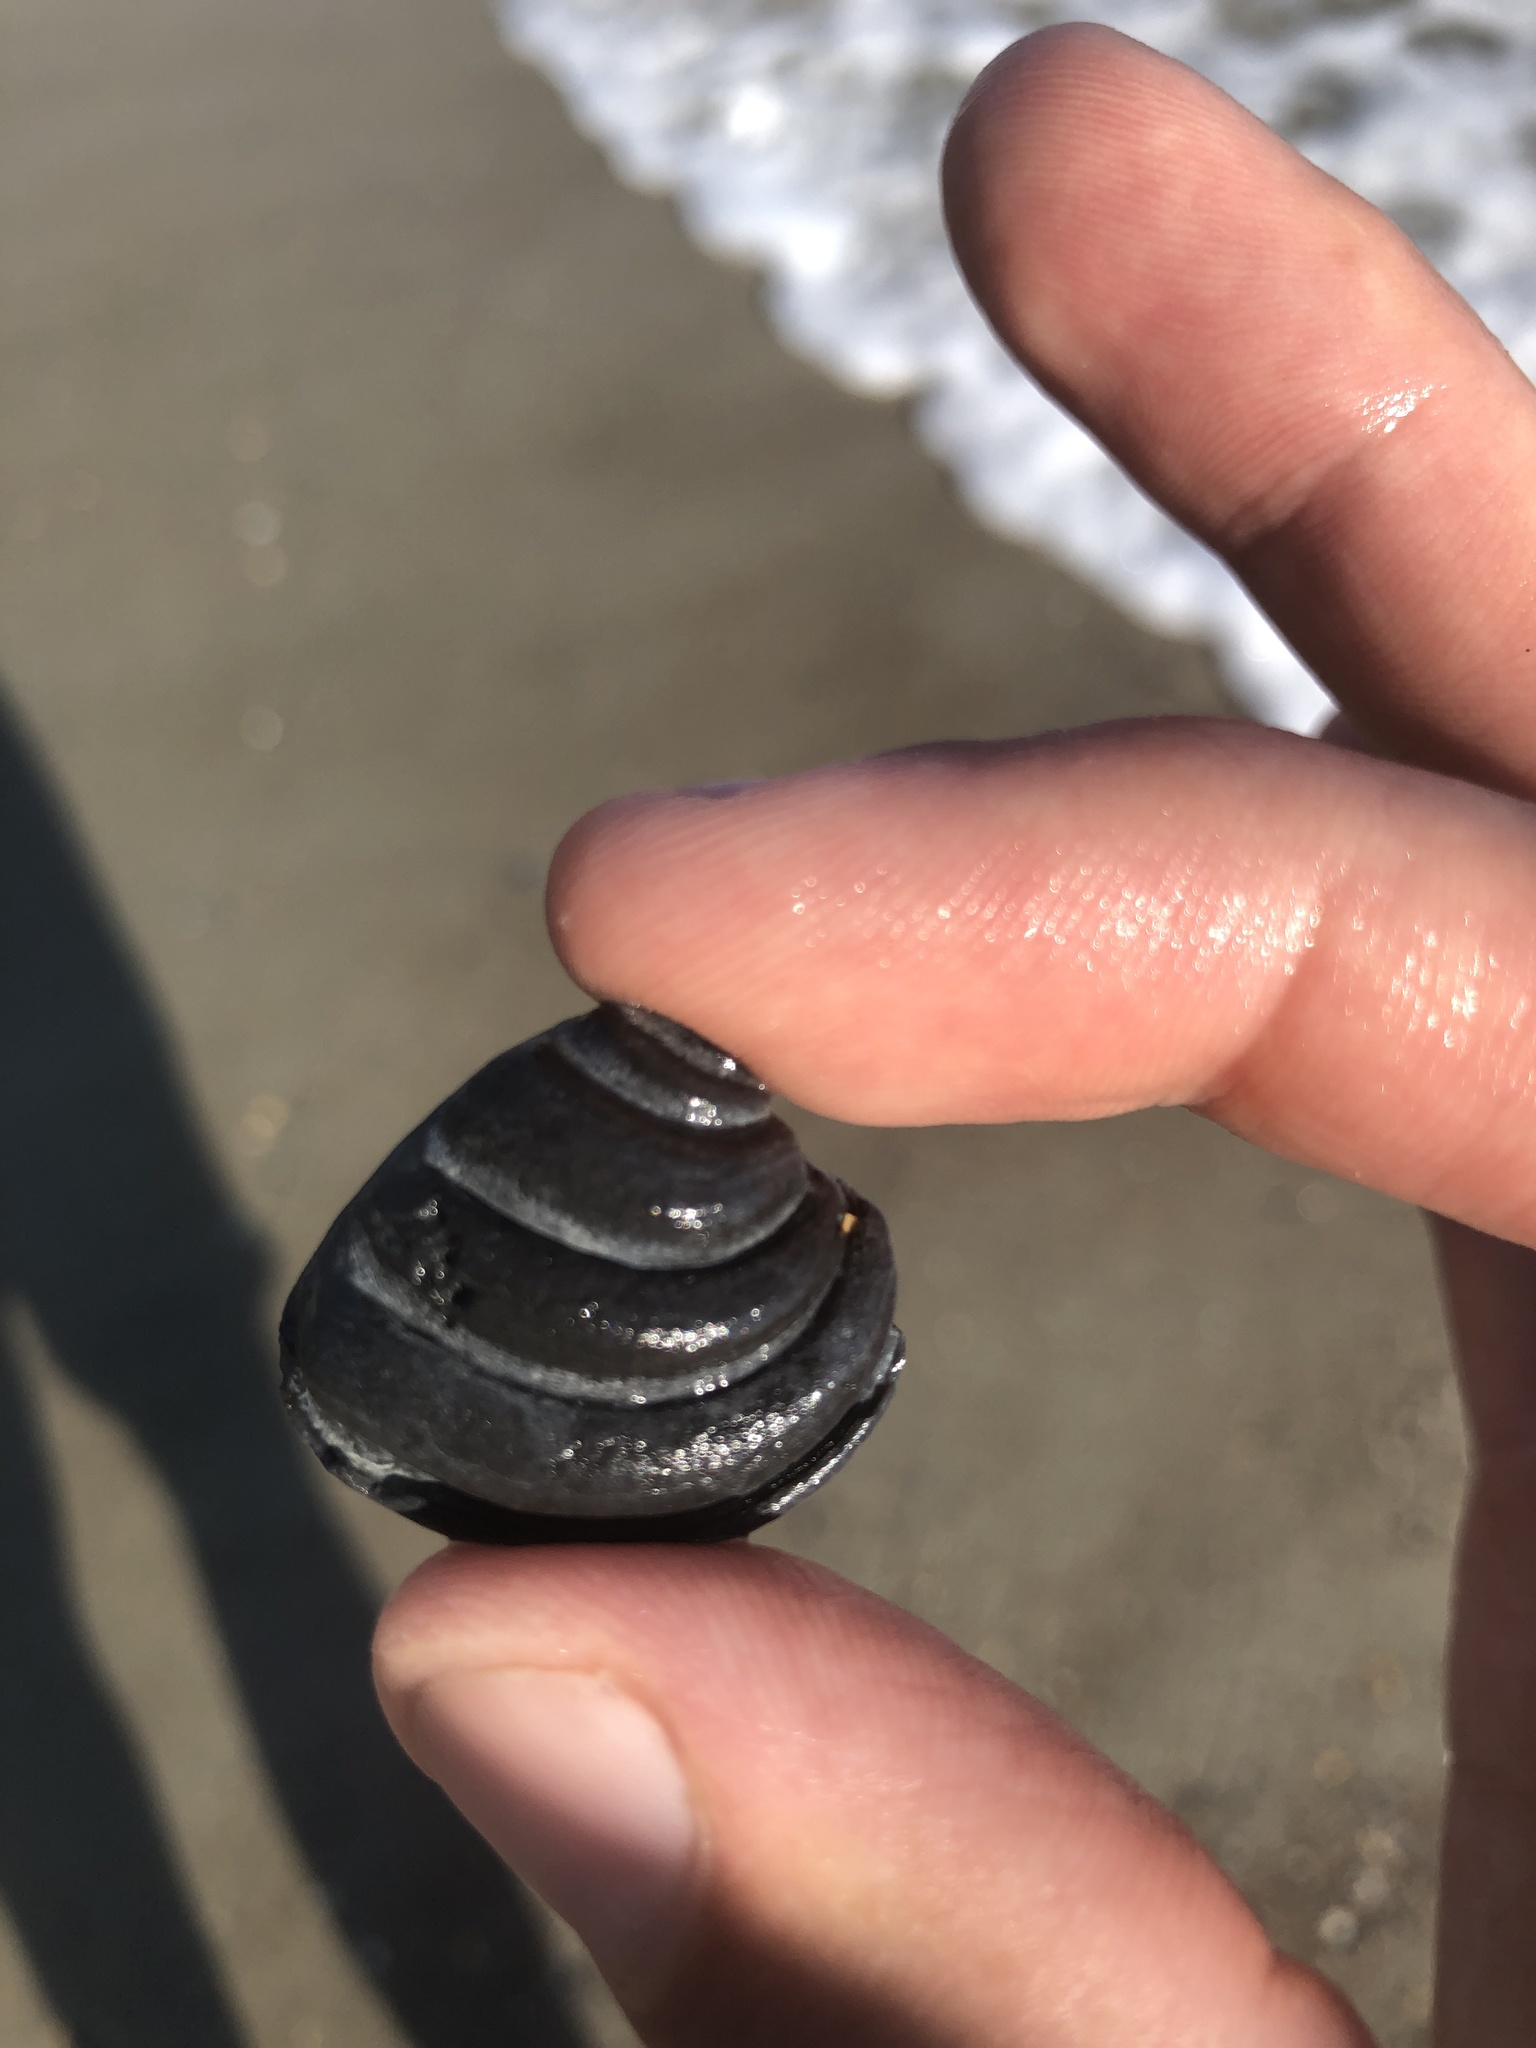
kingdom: Animalia
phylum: Mollusca
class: Bivalvia
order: Venerida
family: Veneridae
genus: Lirophora
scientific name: Lirophora varicosa
